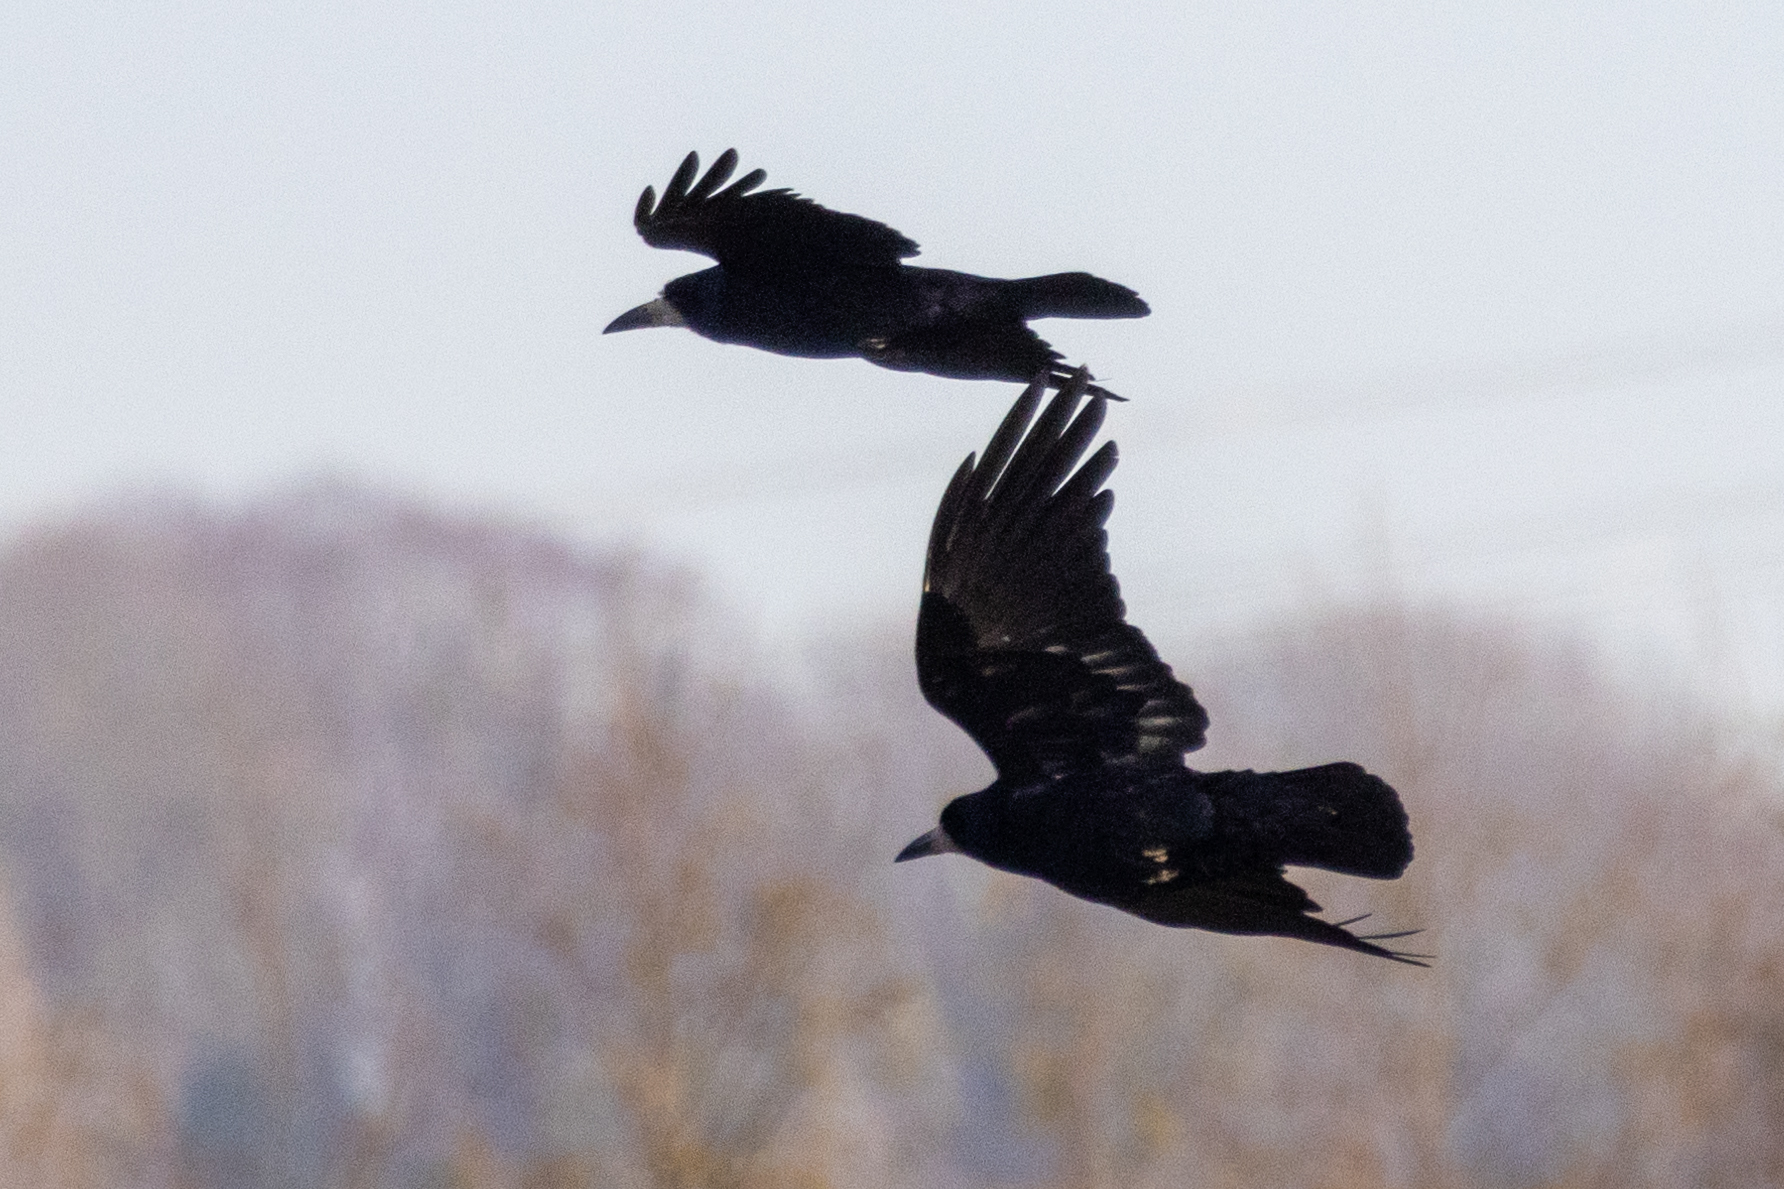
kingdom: Animalia
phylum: Chordata
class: Aves
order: Passeriformes
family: Corvidae
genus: Corvus
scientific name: Corvus frugilegus
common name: Rook
